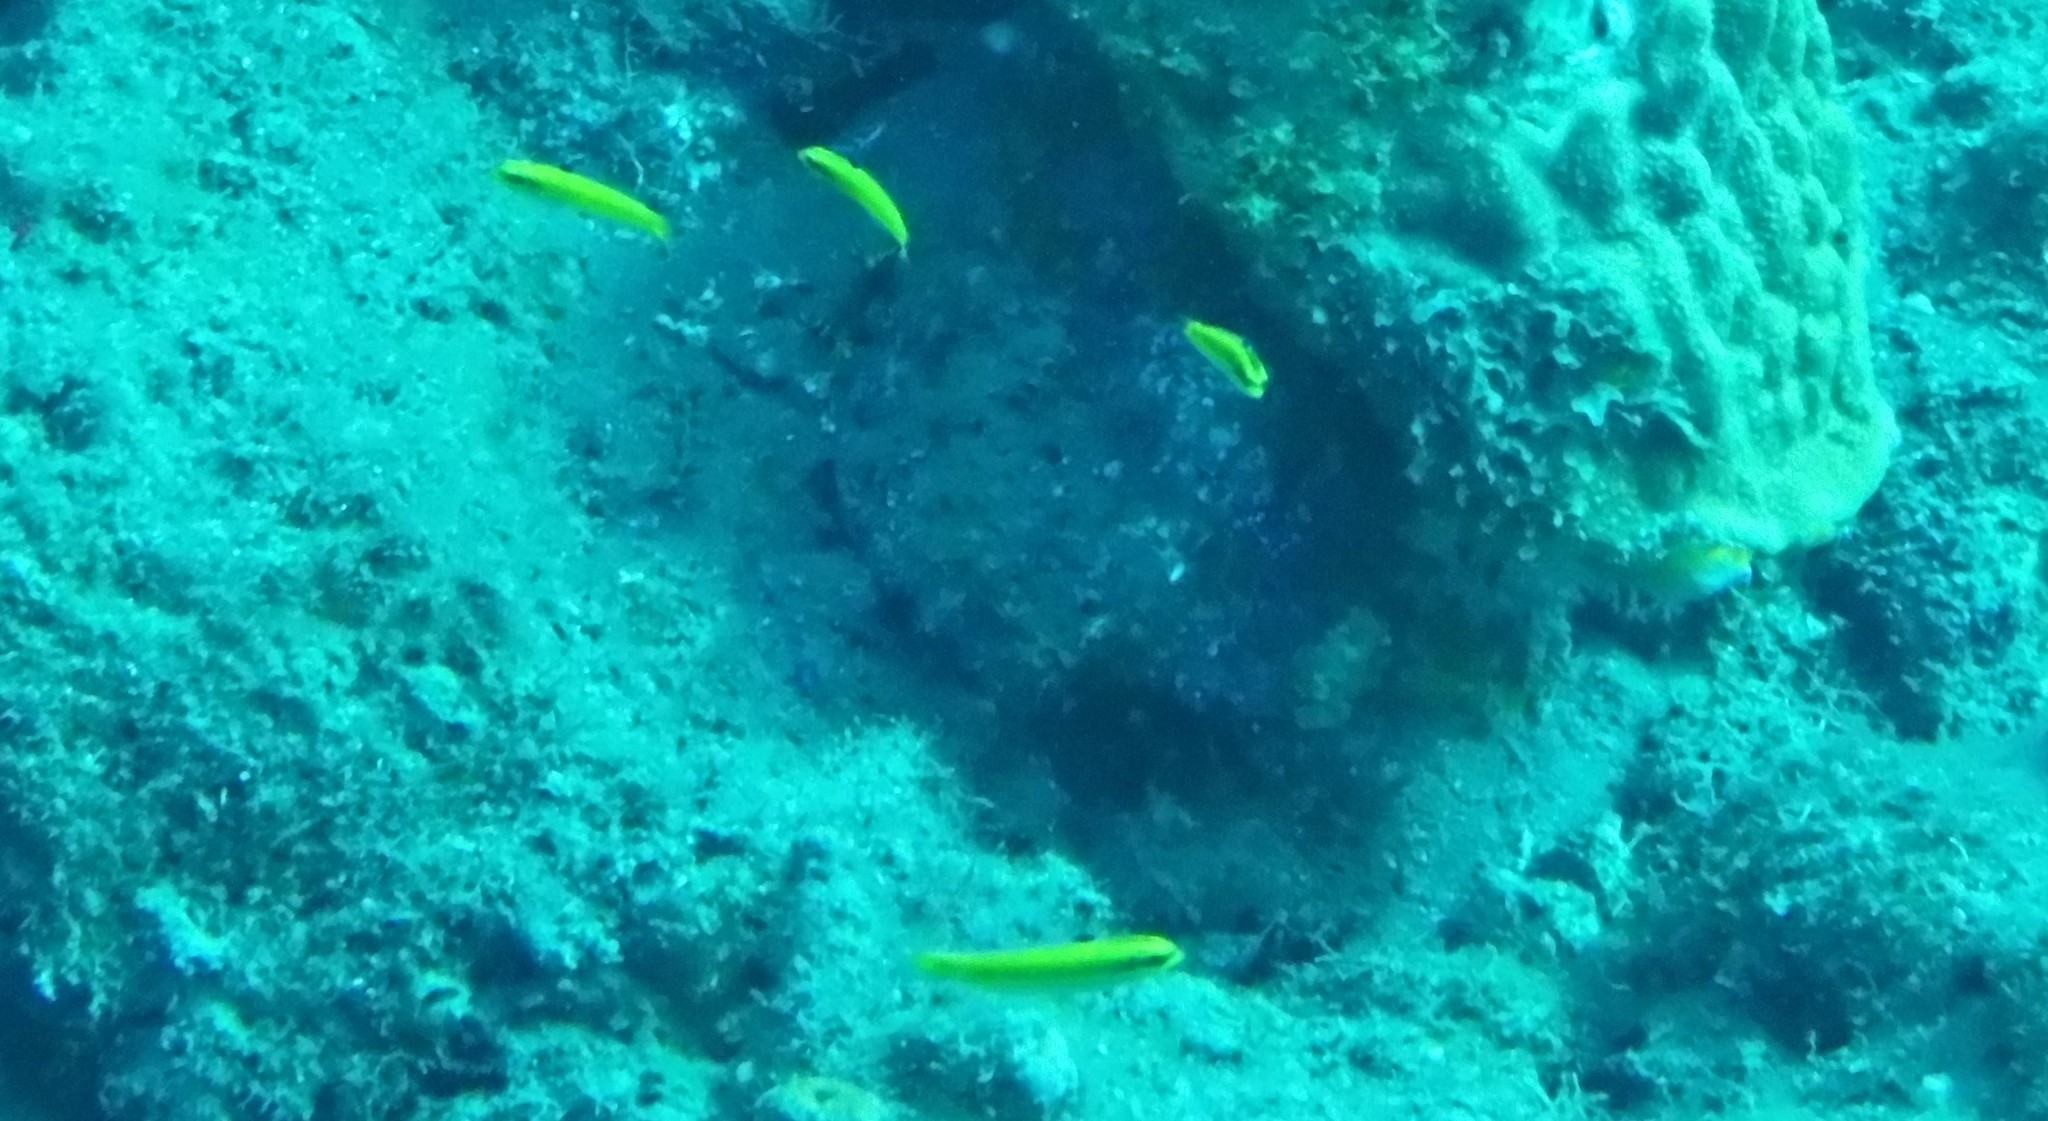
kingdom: Animalia
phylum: Chordata
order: Perciformes
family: Labridae
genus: Thalassoma
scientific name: Thalassoma bifasciatum
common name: Bluehead wrasse
